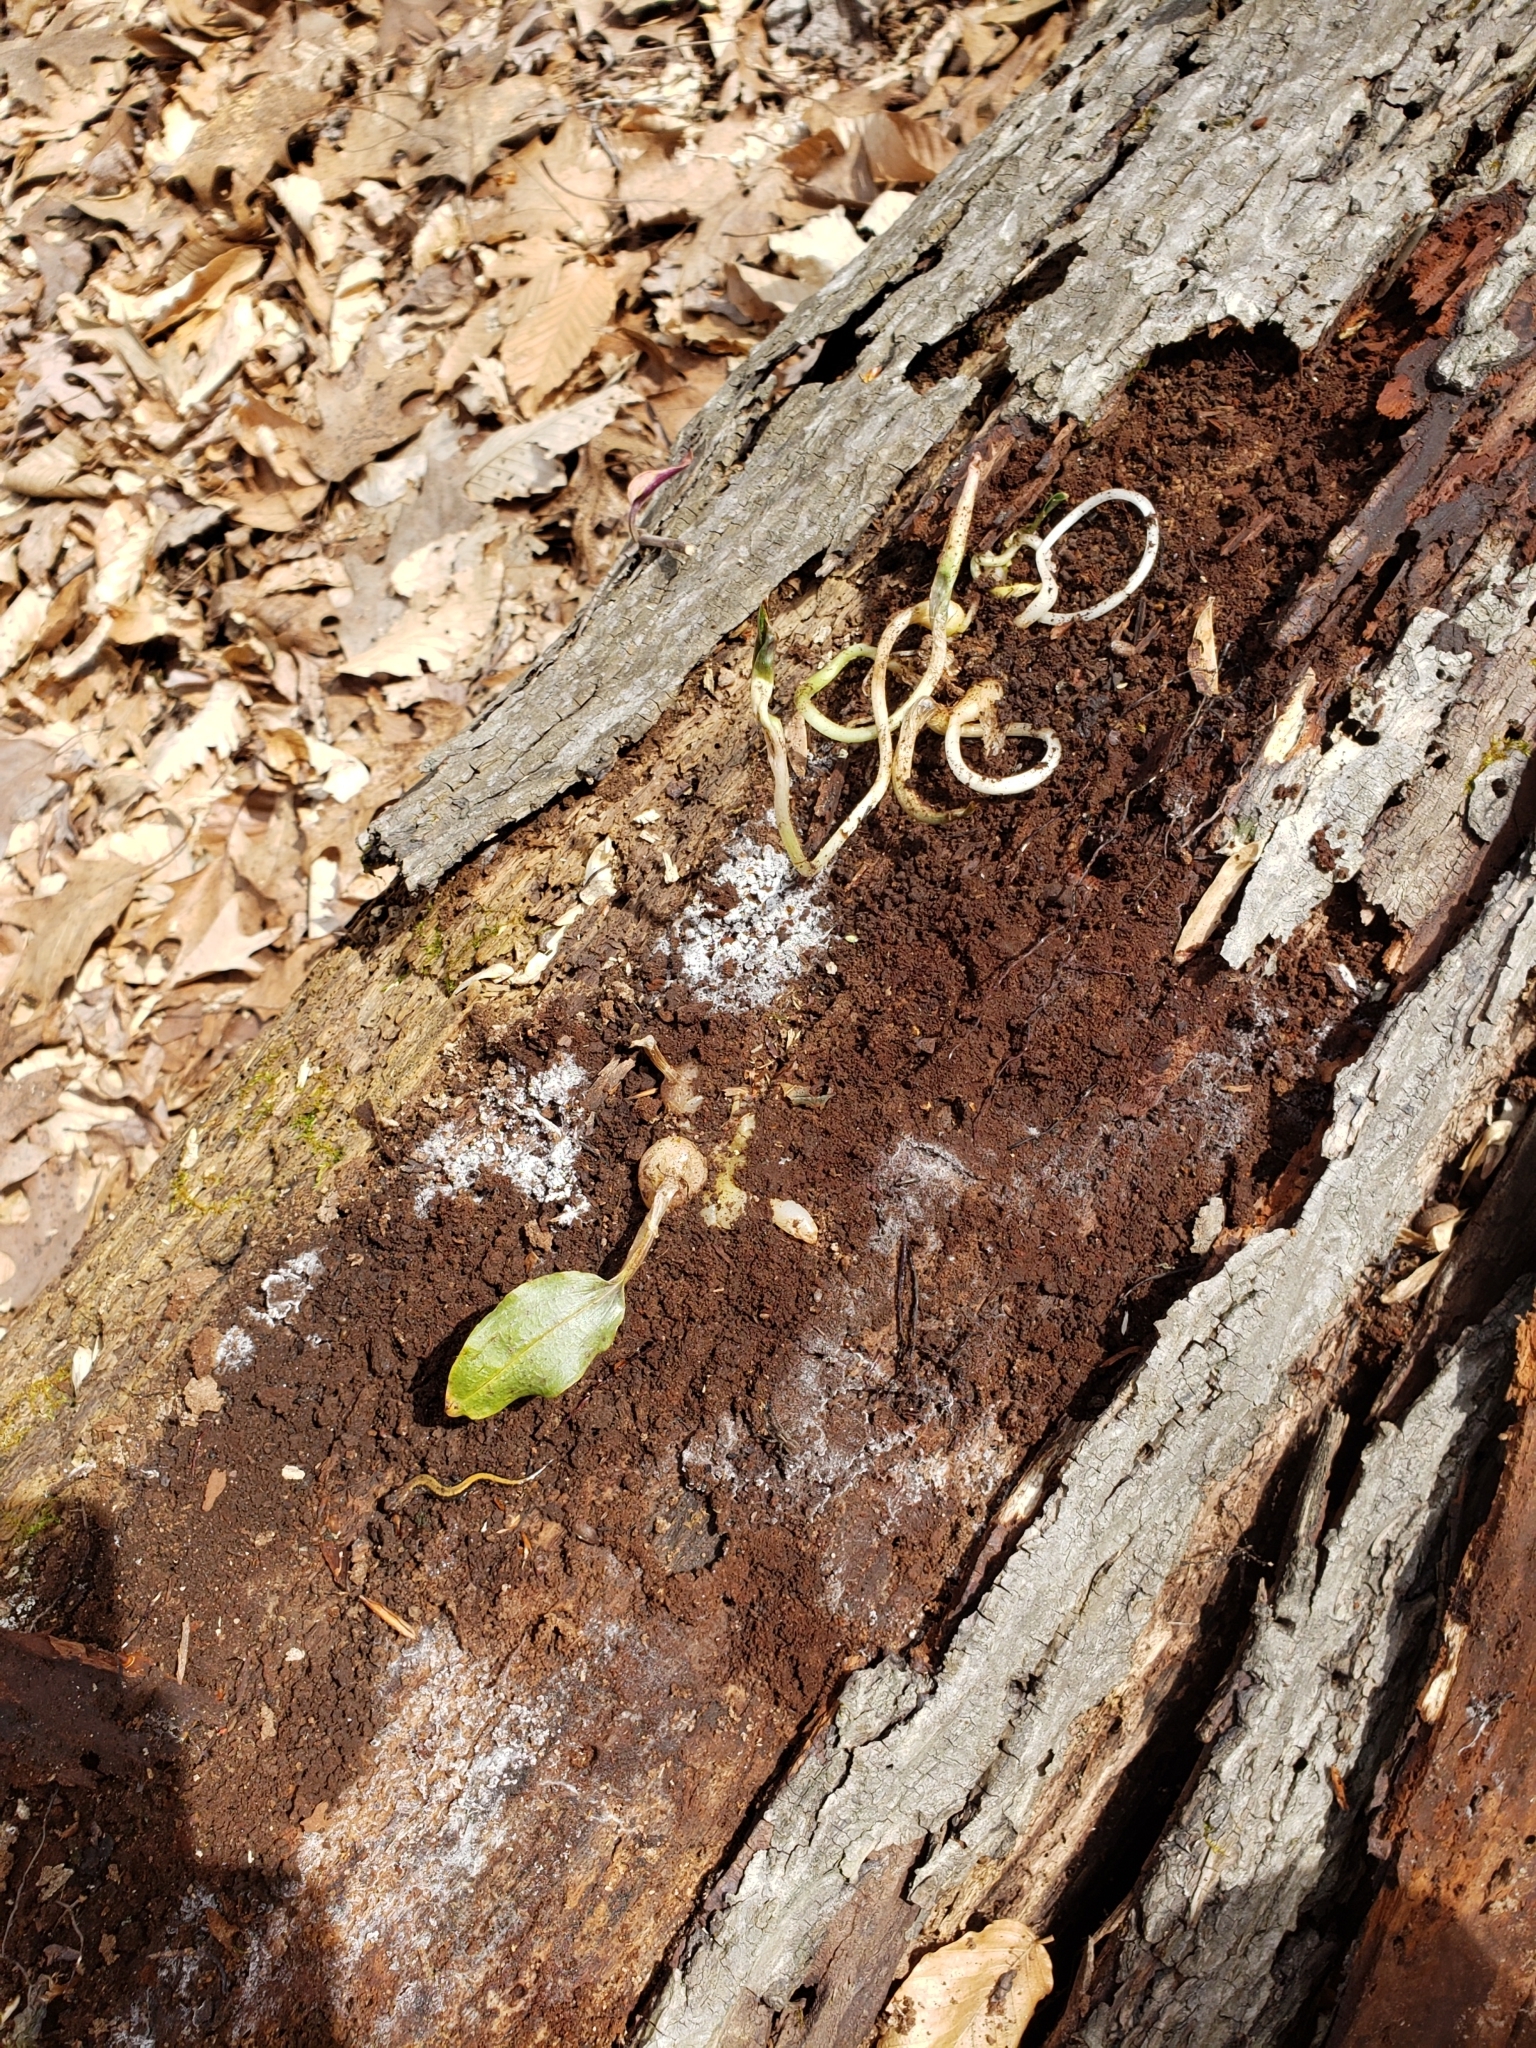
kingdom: Plantae
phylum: Tracheophyta
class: Liliopsida
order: Asparagales
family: Orchidaceae
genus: Tipularia
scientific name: Tipularia discolor
